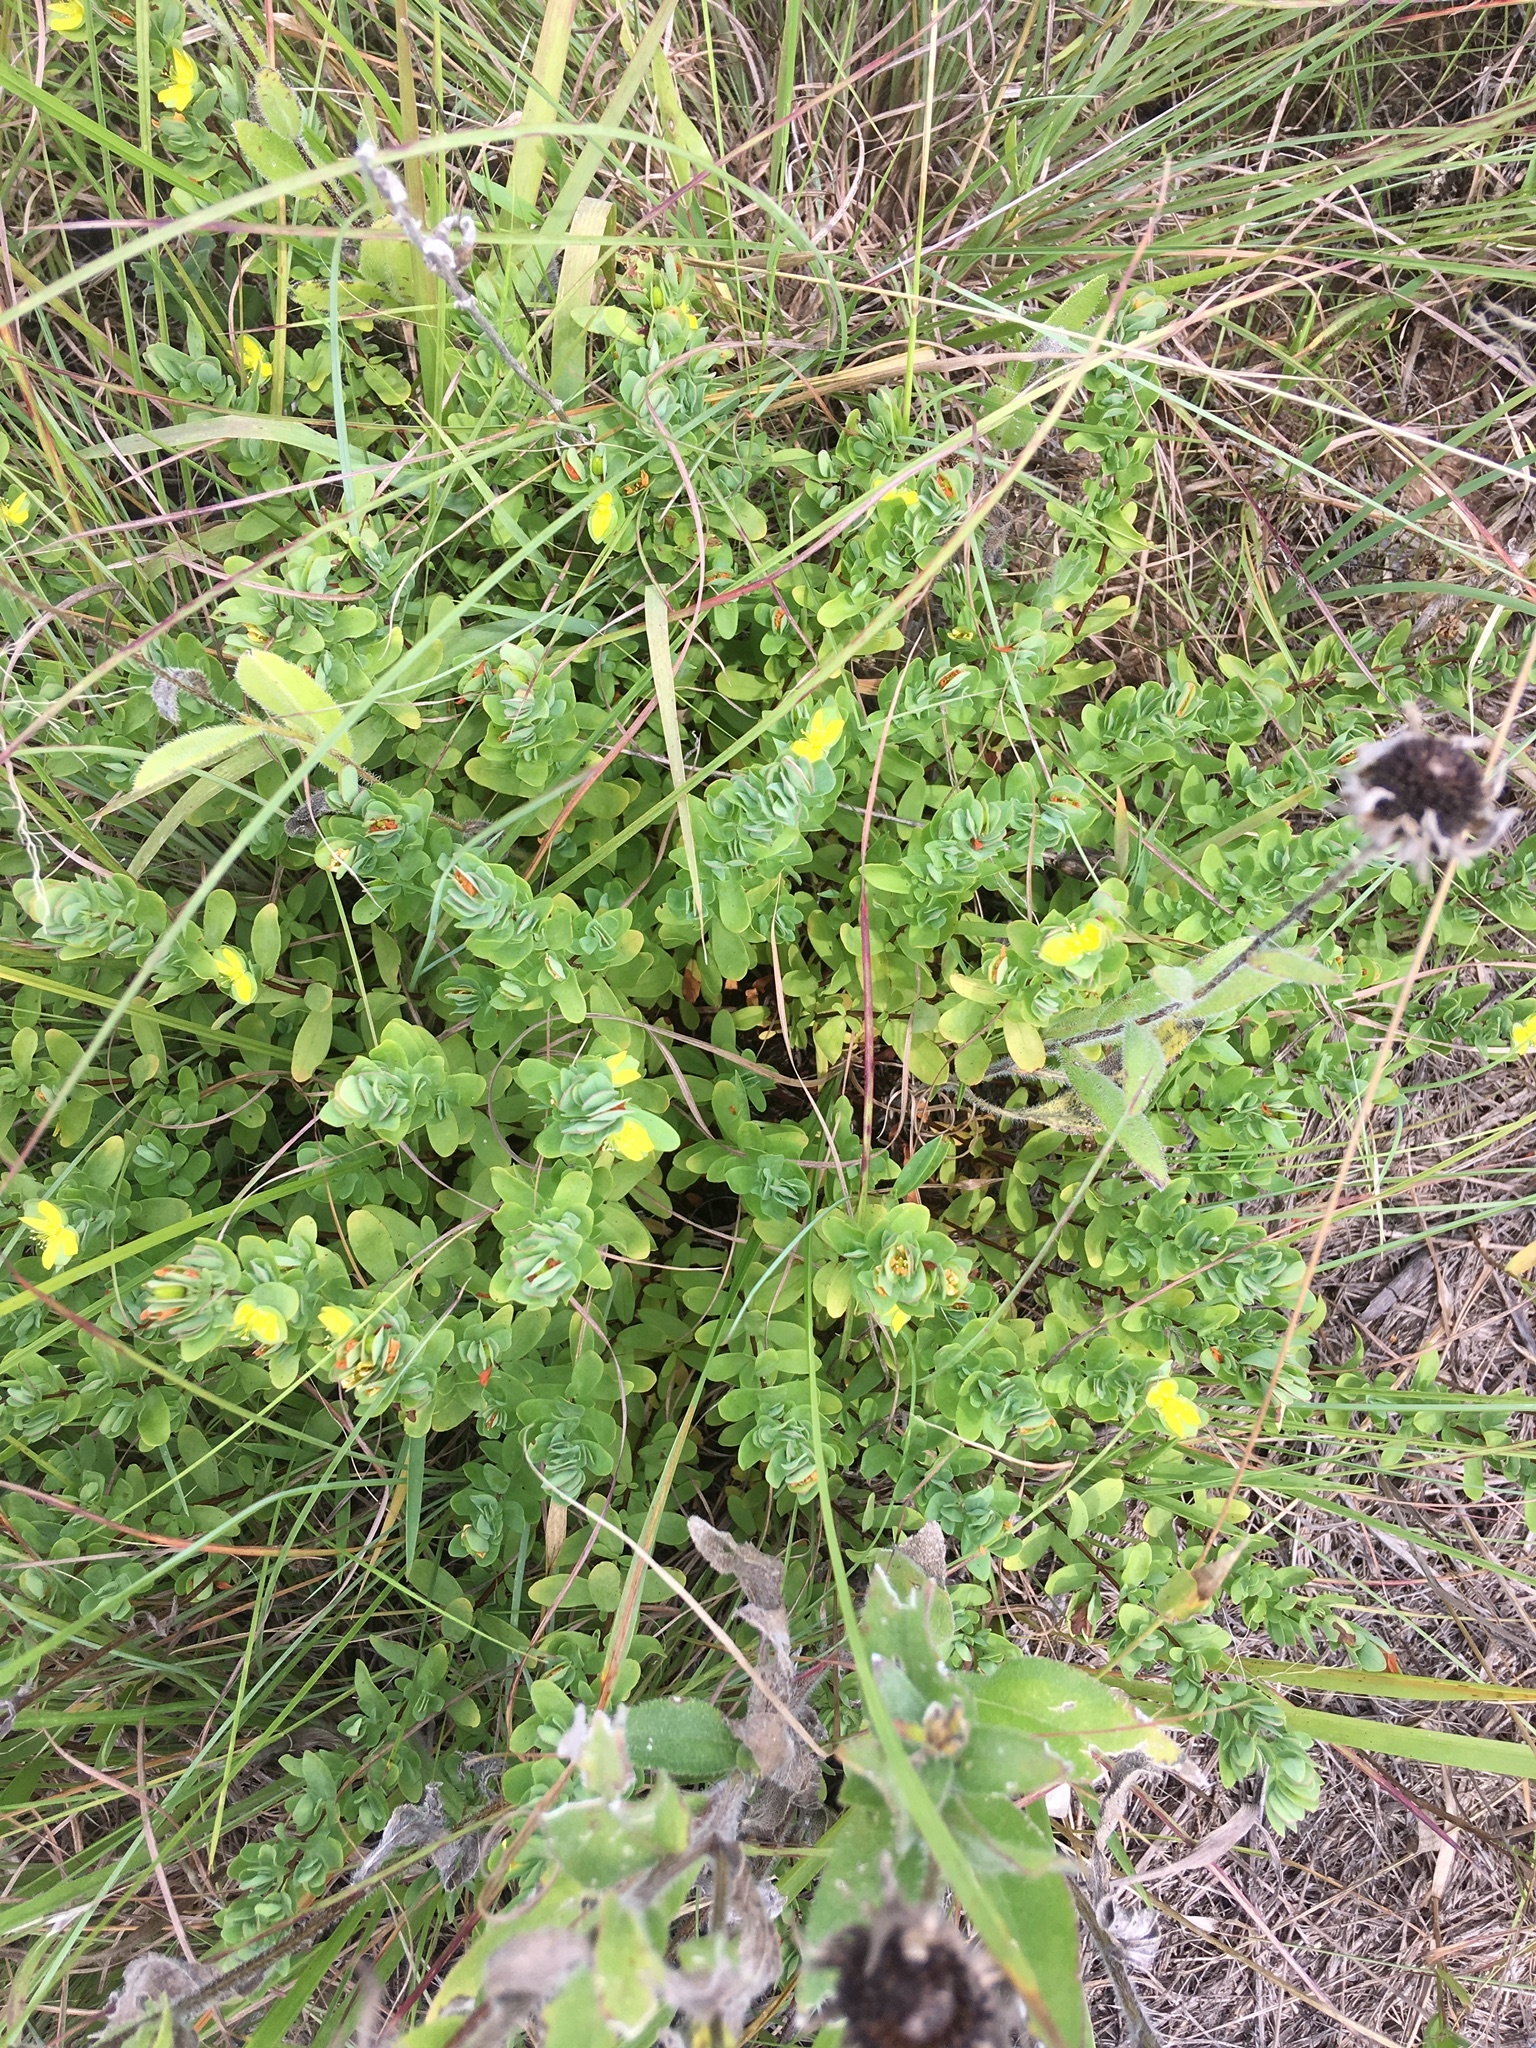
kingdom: Plantae
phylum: Tracheophyta
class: Magnoliopsida
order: Malpighiales
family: Hypericaceae
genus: Hypericum
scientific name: Hypericum hypericoides
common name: St. andrew's cross
